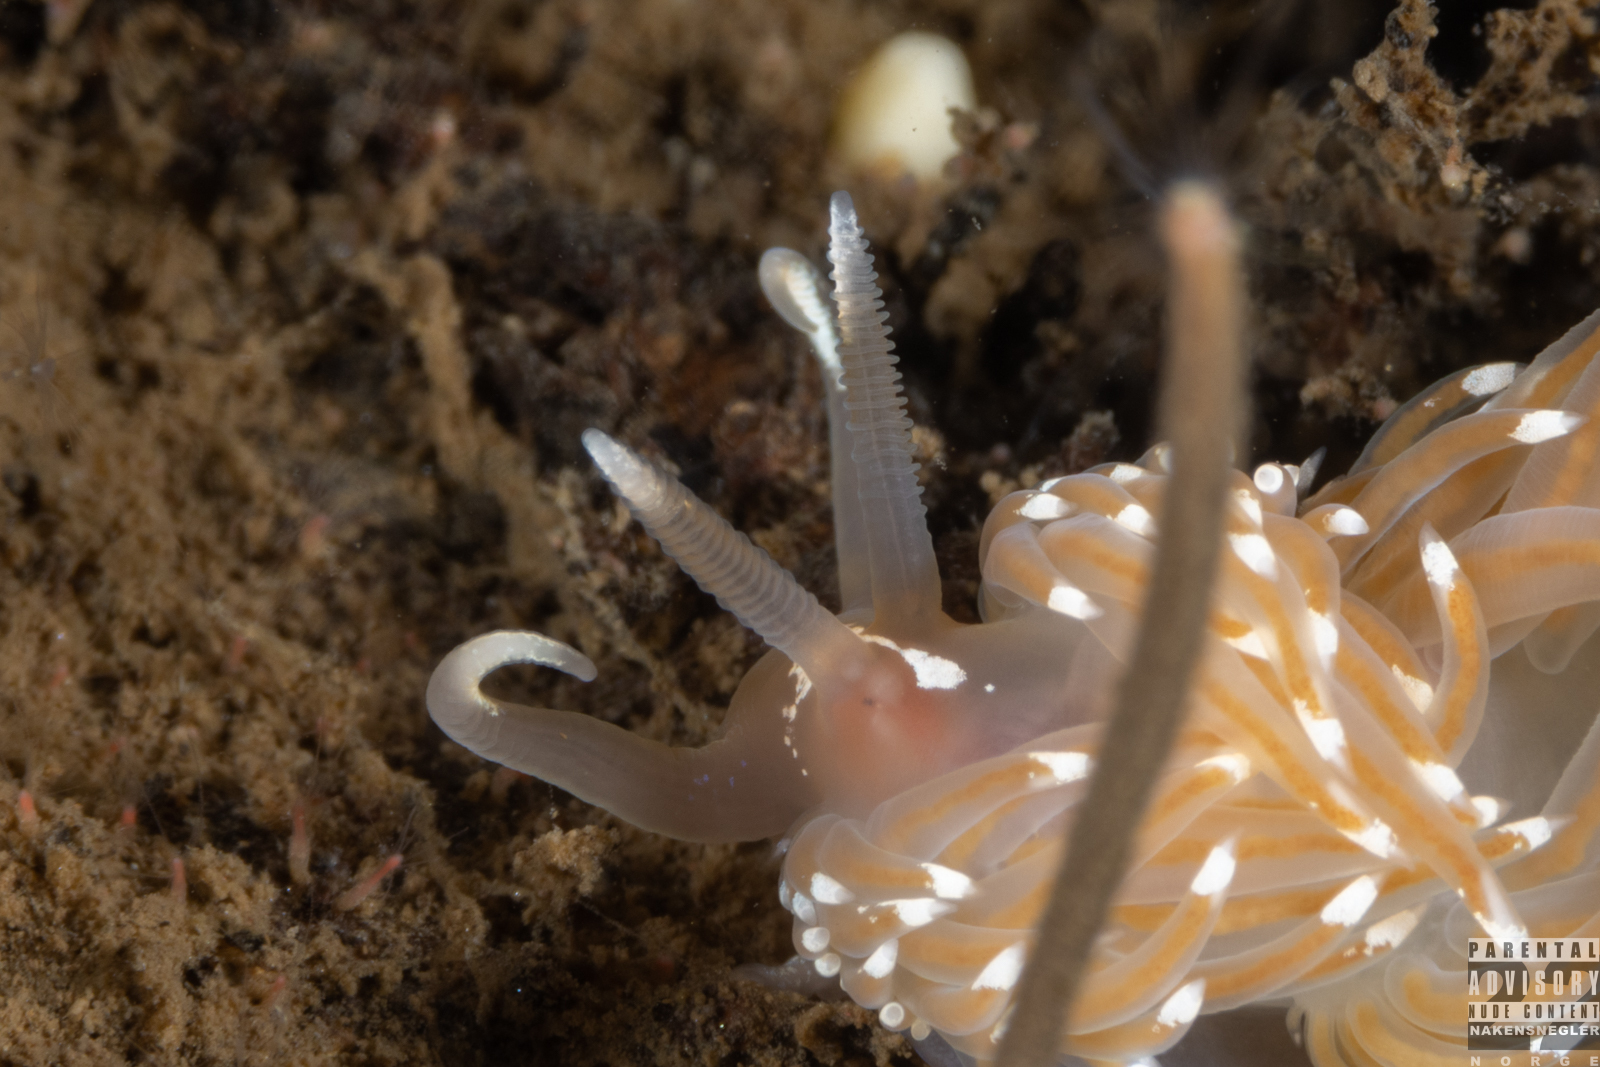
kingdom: Animalia
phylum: Mollusca
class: Gastropoda
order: Nudibranchia
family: Facelinidae
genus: Facelina
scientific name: Facelina bostoniensis
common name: Boston facelina
